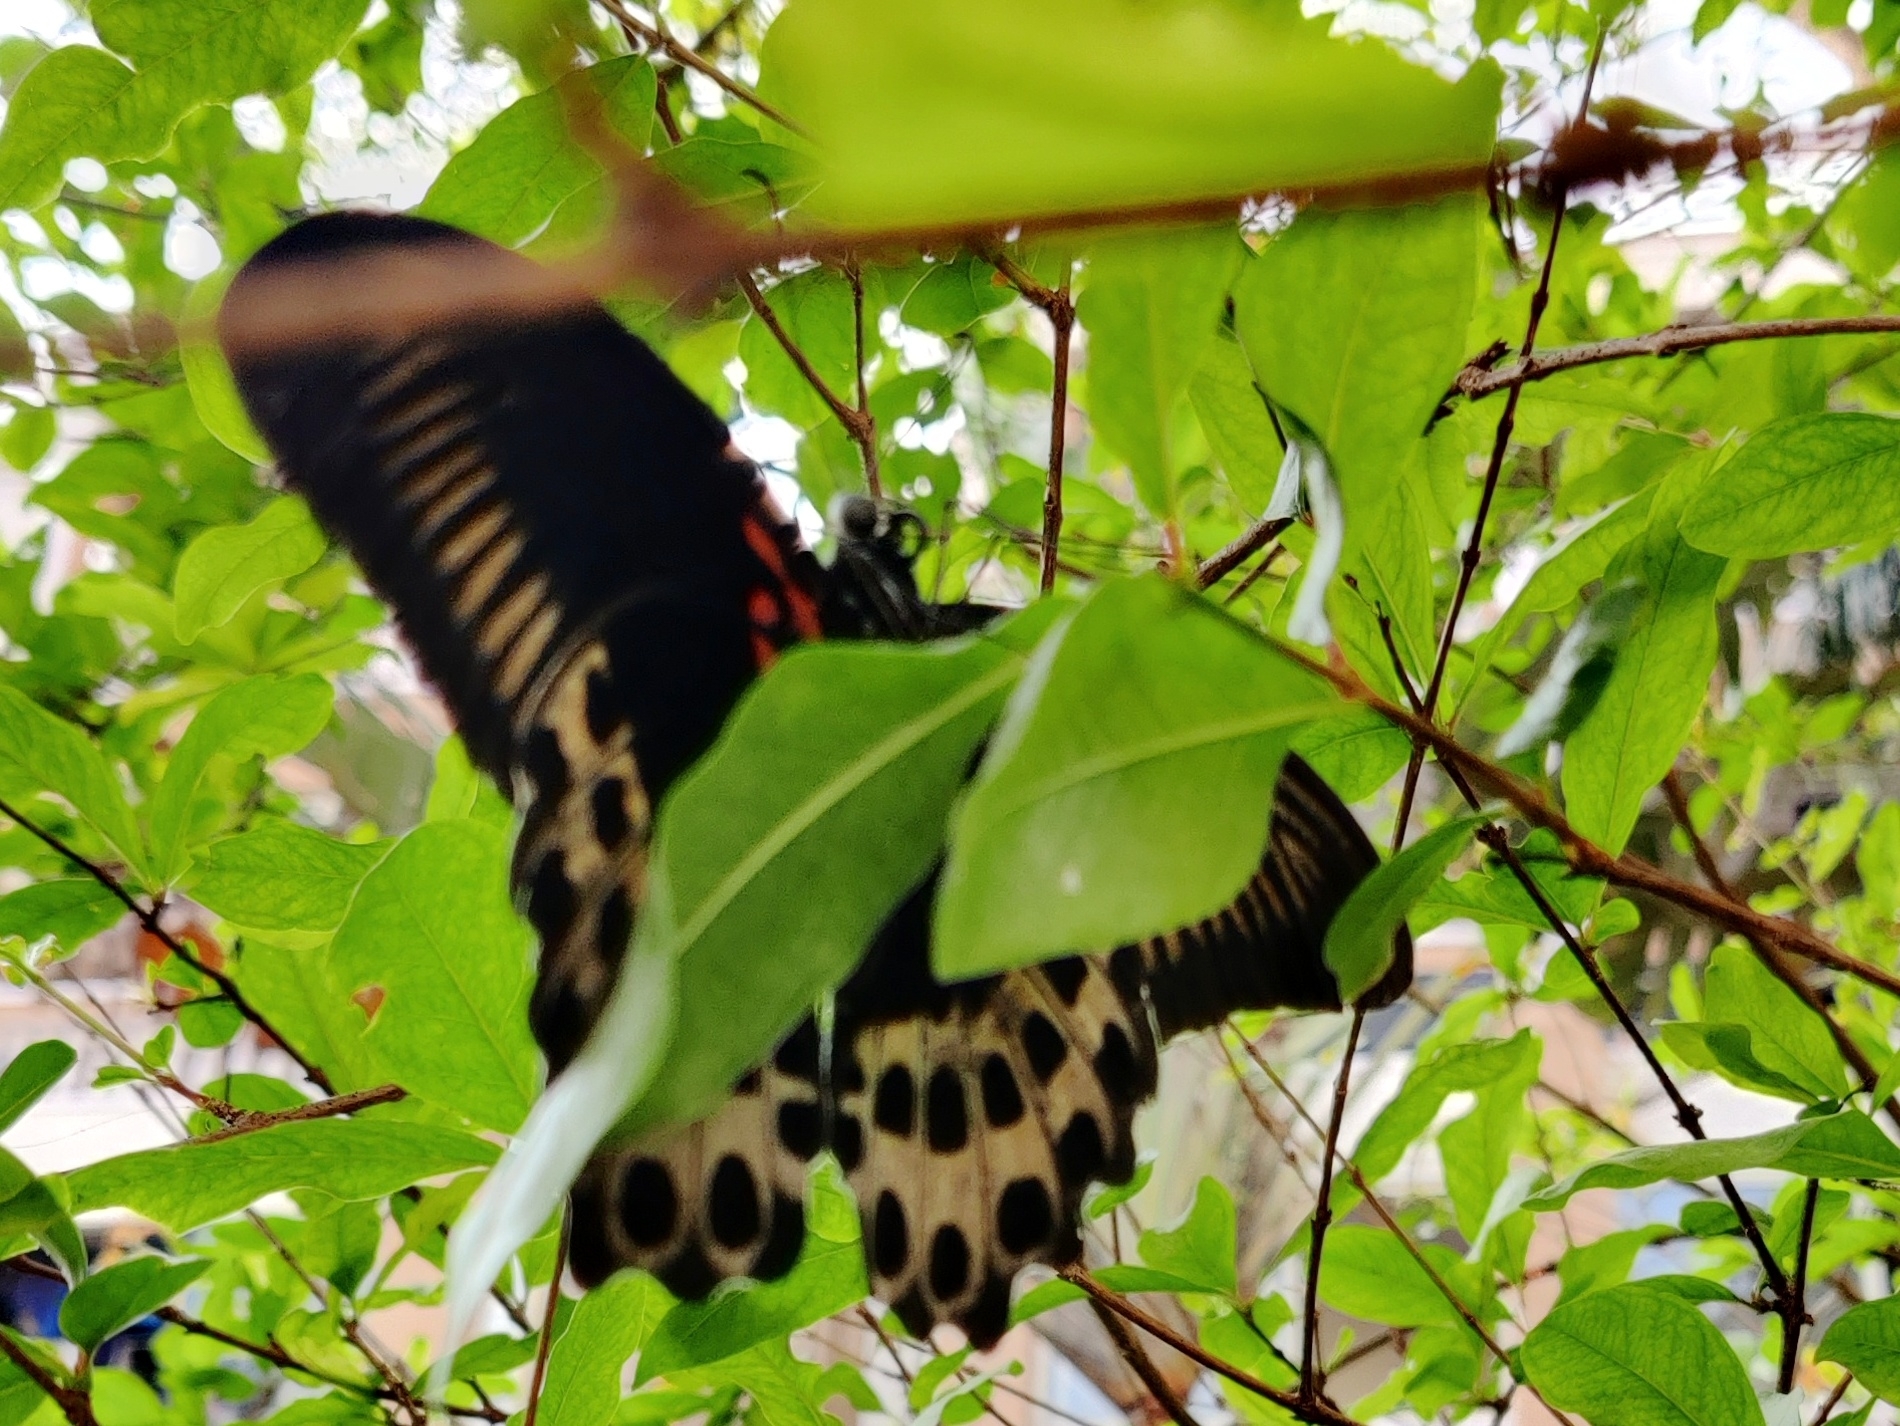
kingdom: Animalia
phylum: Arthropoda
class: Insecta
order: Lepidoptera
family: Papilionidae
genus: Papilio
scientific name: Papilio memnon
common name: Great mormon
